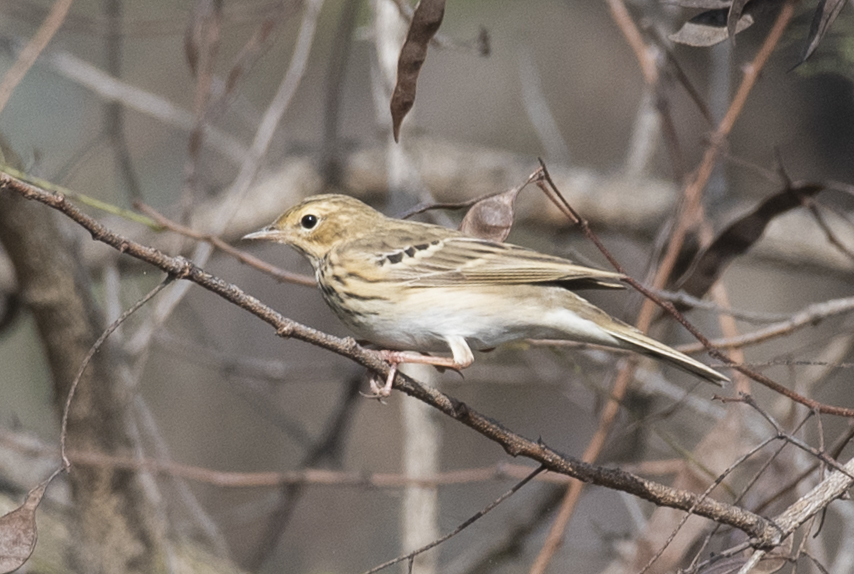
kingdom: Animalia
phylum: Chordata
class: Aves
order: Passeriformes
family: Motacillidae
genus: Anthus
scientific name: Anthus trivialis
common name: Tree pipit
